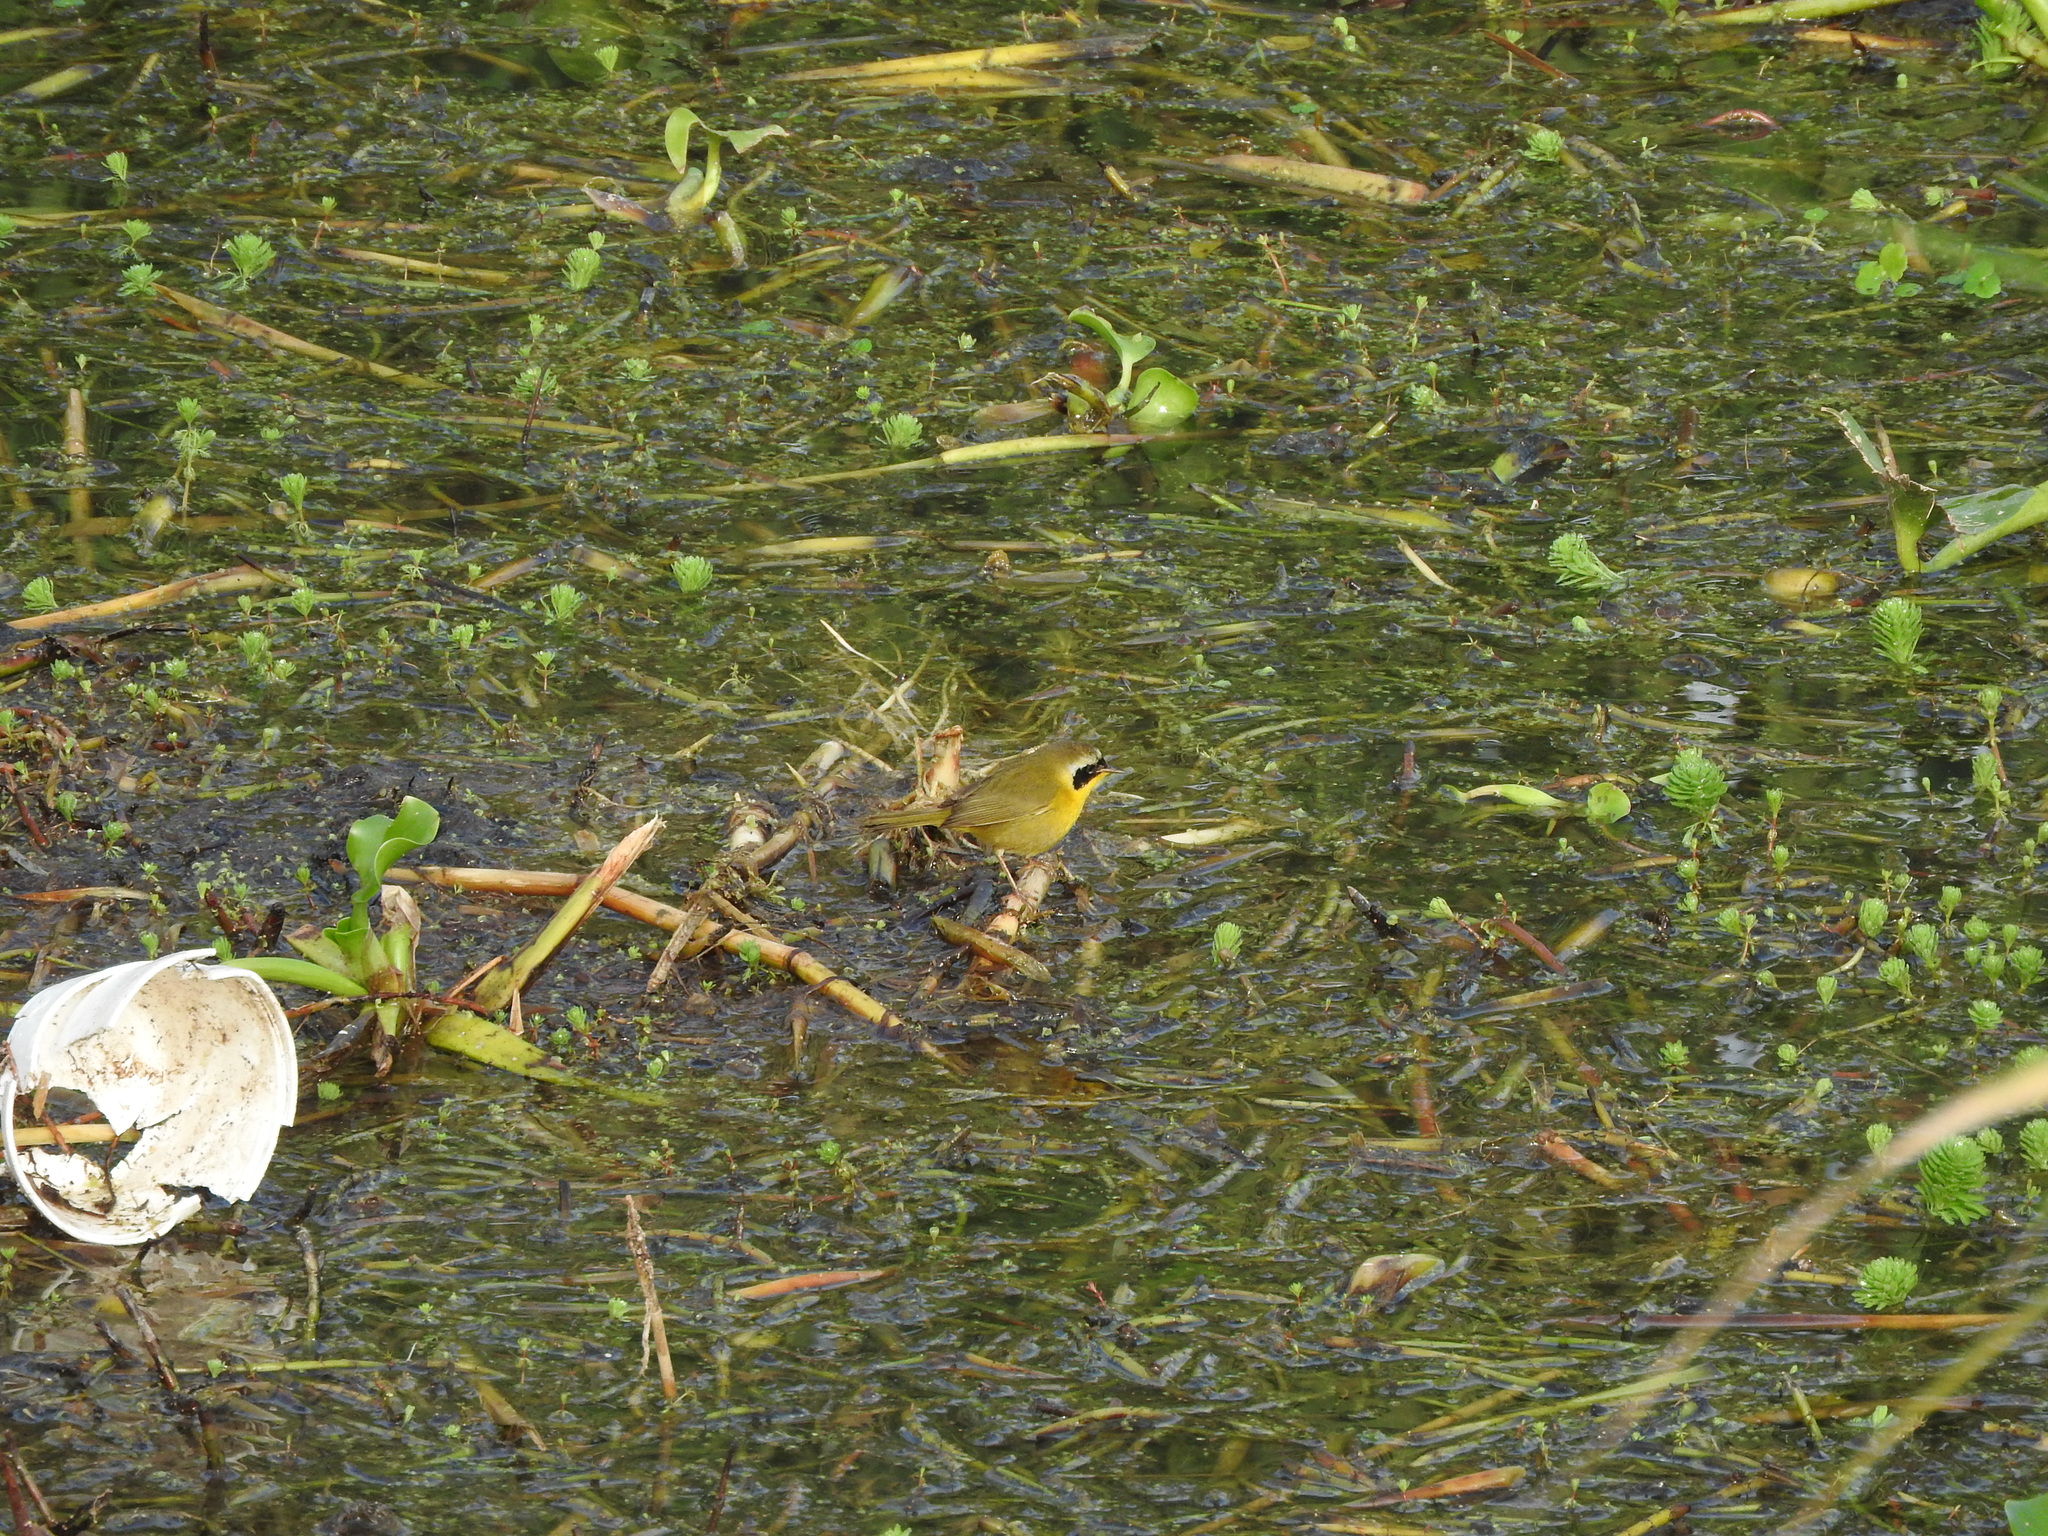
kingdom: Animalia
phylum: Chordata
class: Aves
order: Passeriformes
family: Parulidae
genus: Geothlypis
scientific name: Geothlypis trichas
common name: Common yellowthroat
